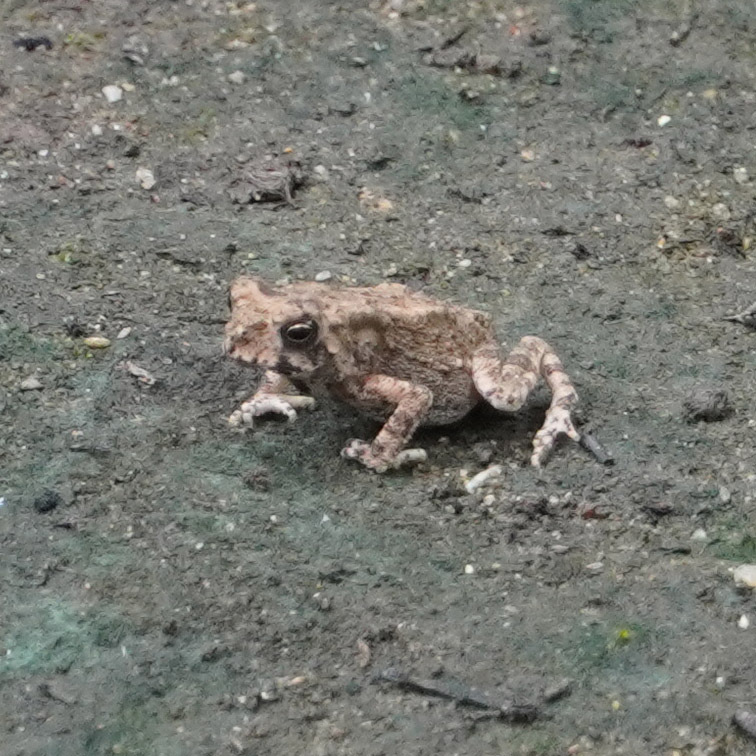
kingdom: Animalia
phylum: Chordata
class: Amphibia
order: Anura
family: Bufonidae
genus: Duttaphrynus
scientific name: Duttaphrynus melanostictus
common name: Common sunda toad
